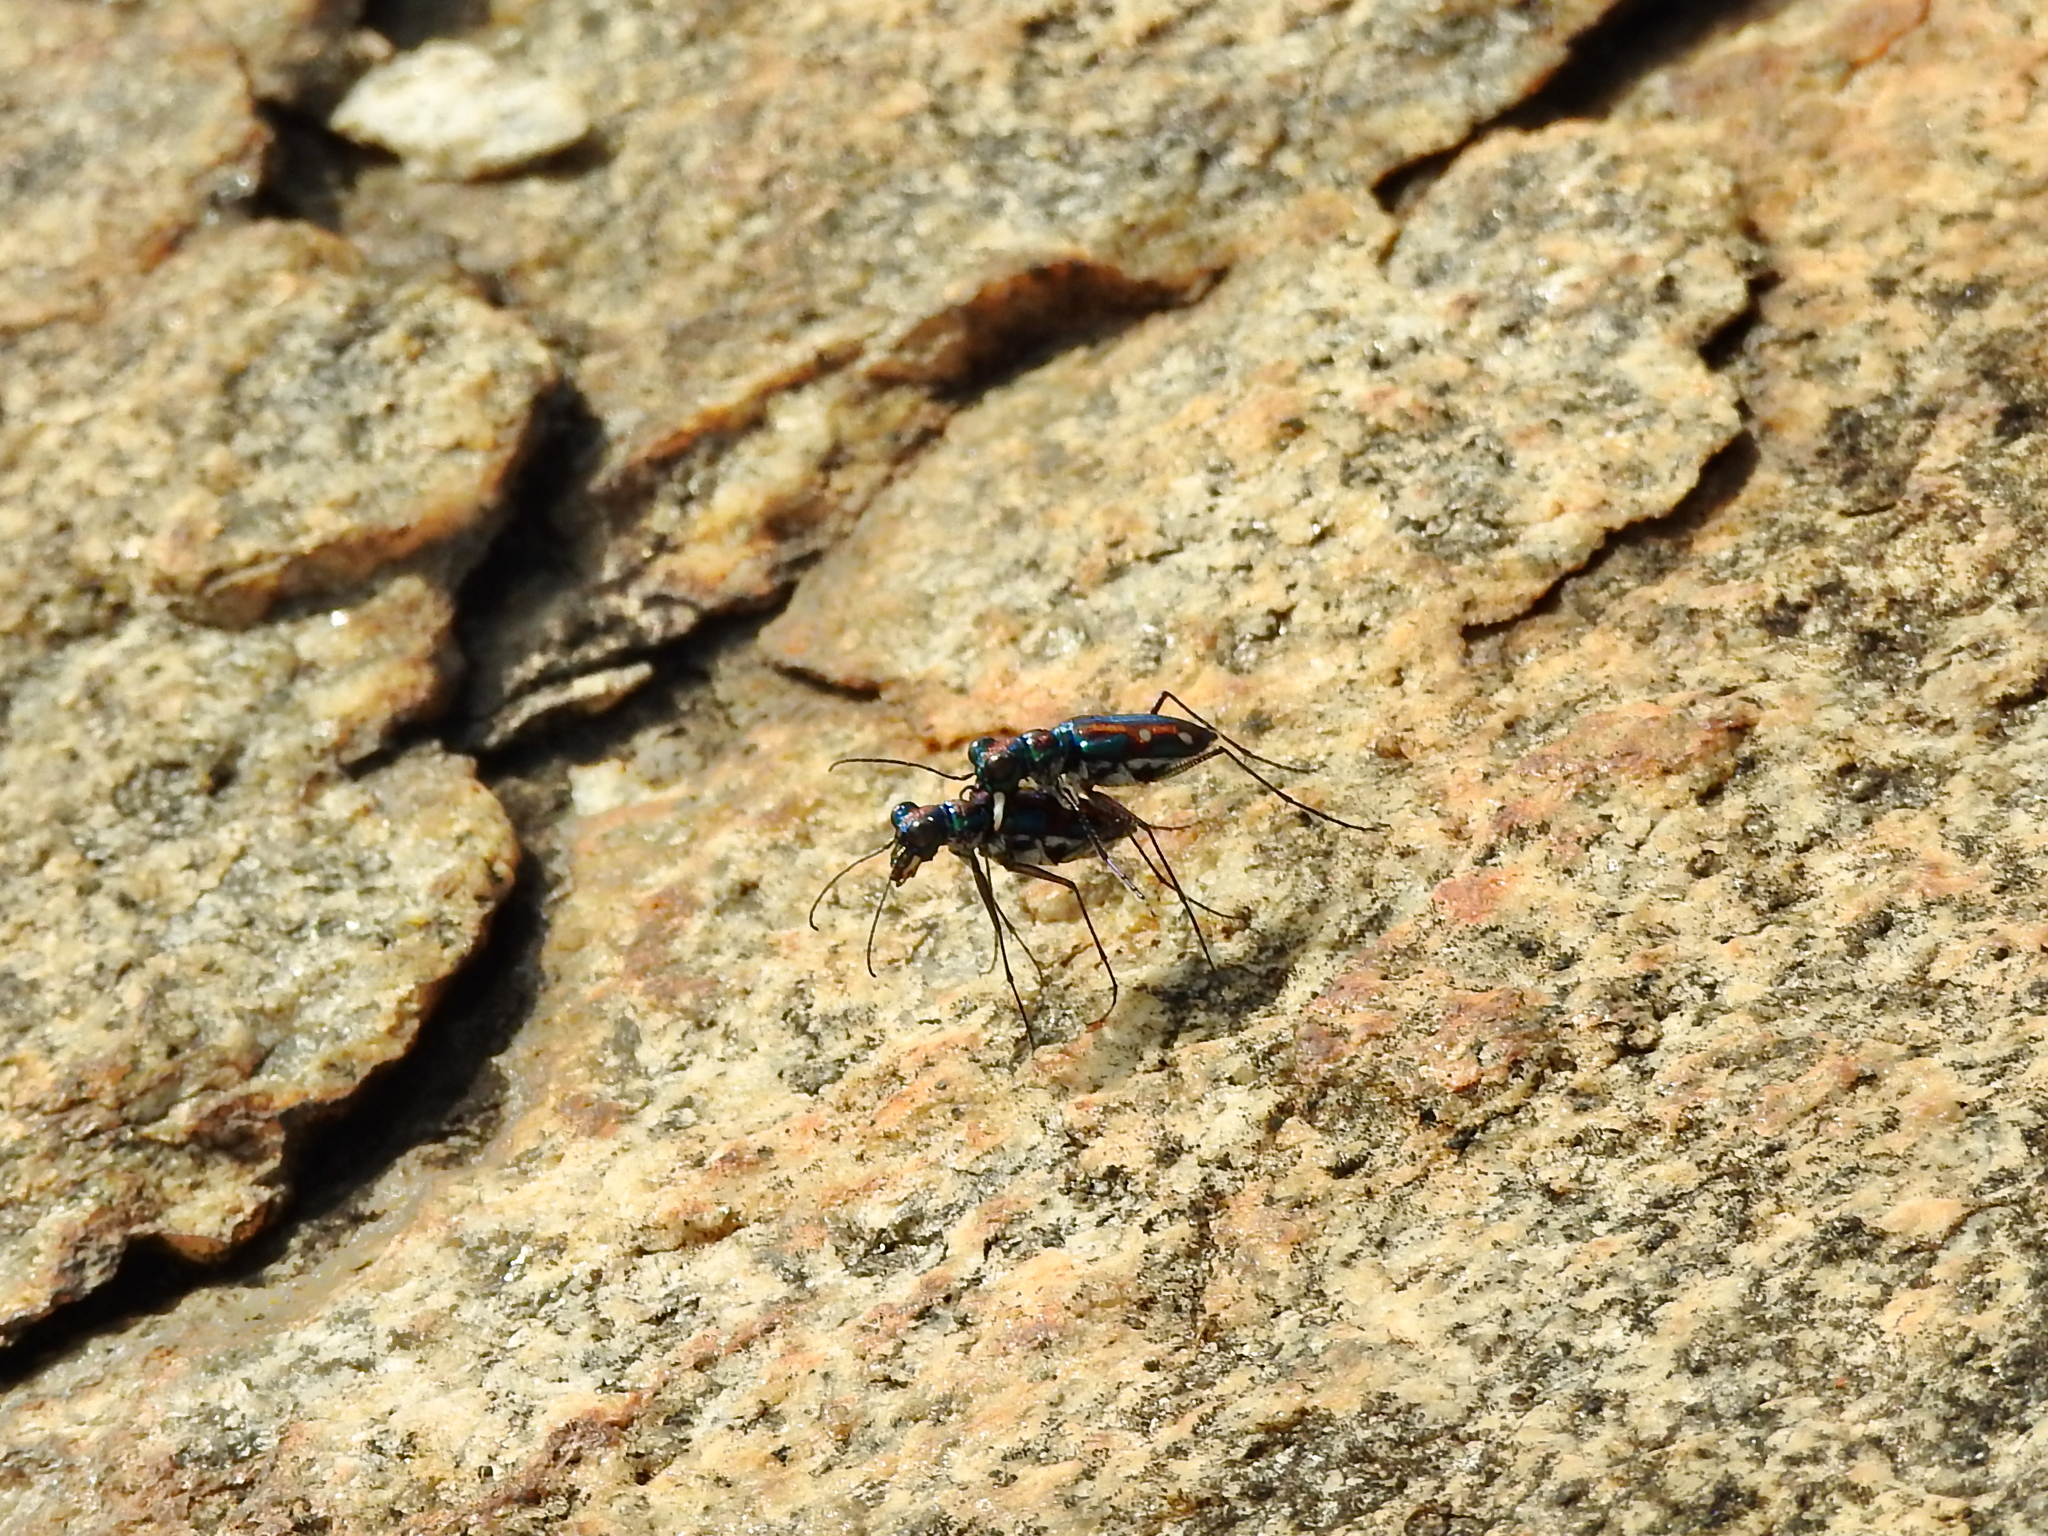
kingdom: Animalia
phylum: Arthropoda
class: Insecta
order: Coleoptera
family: Carabidae
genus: Jansenia
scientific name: Jansenia rugosiceps
